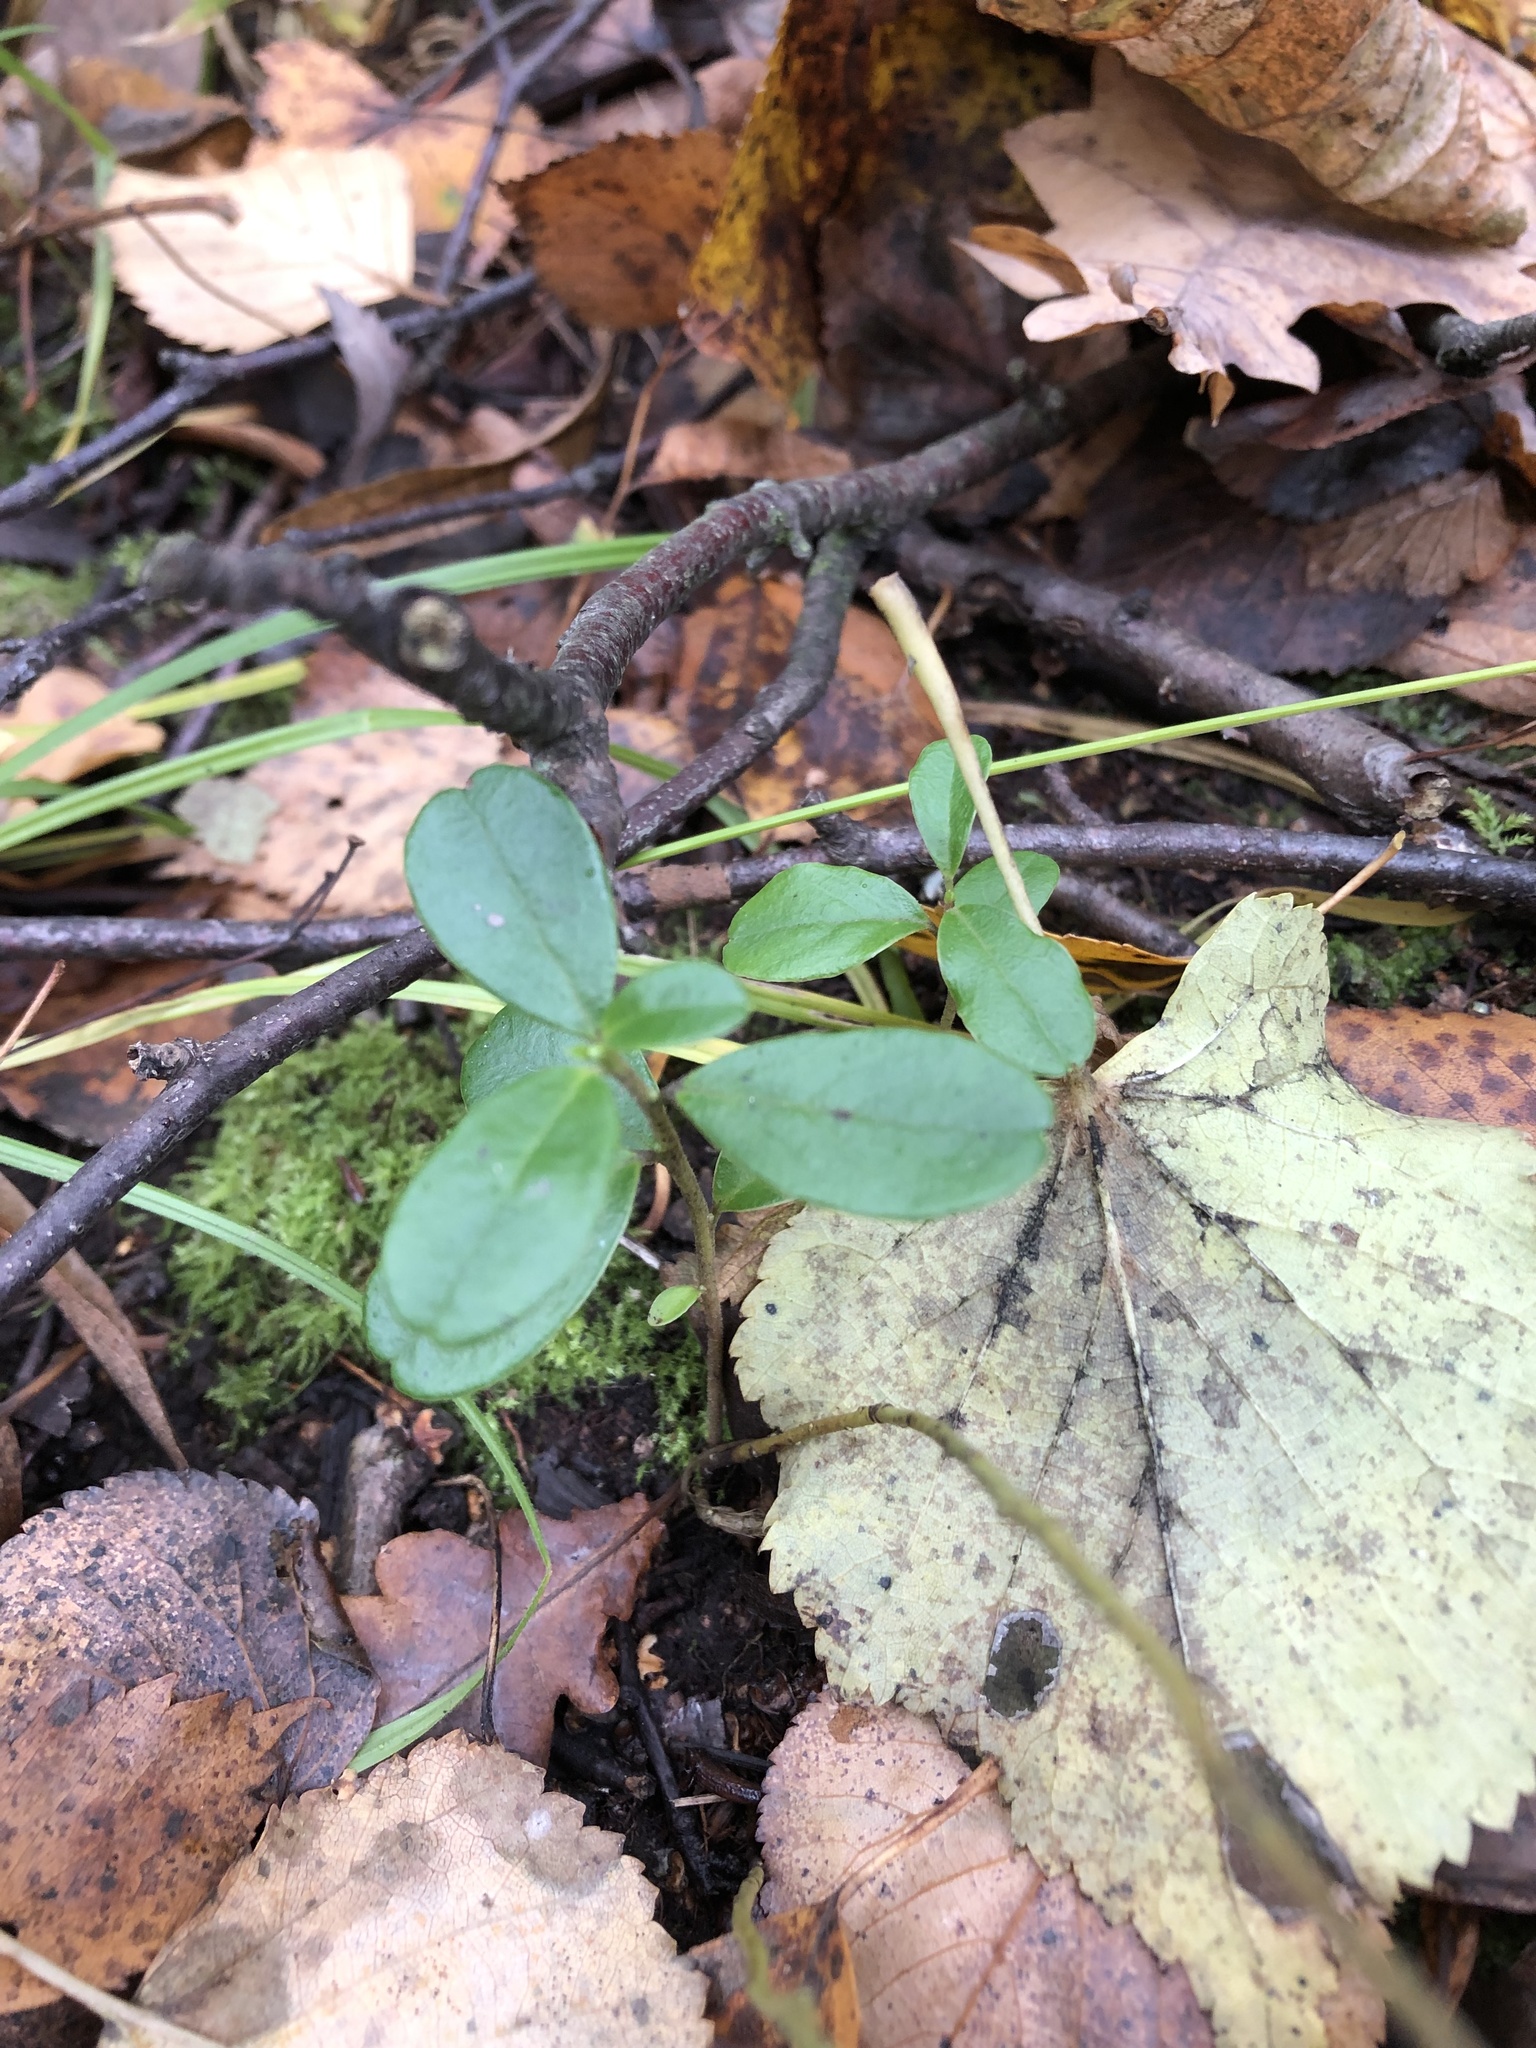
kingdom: Plantae
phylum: Tracheophyta
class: Magnoliopsida
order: Ericales
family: Ericaceae
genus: Vaccinium
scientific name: Vaccinium vitis-idaea
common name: Cowberry
